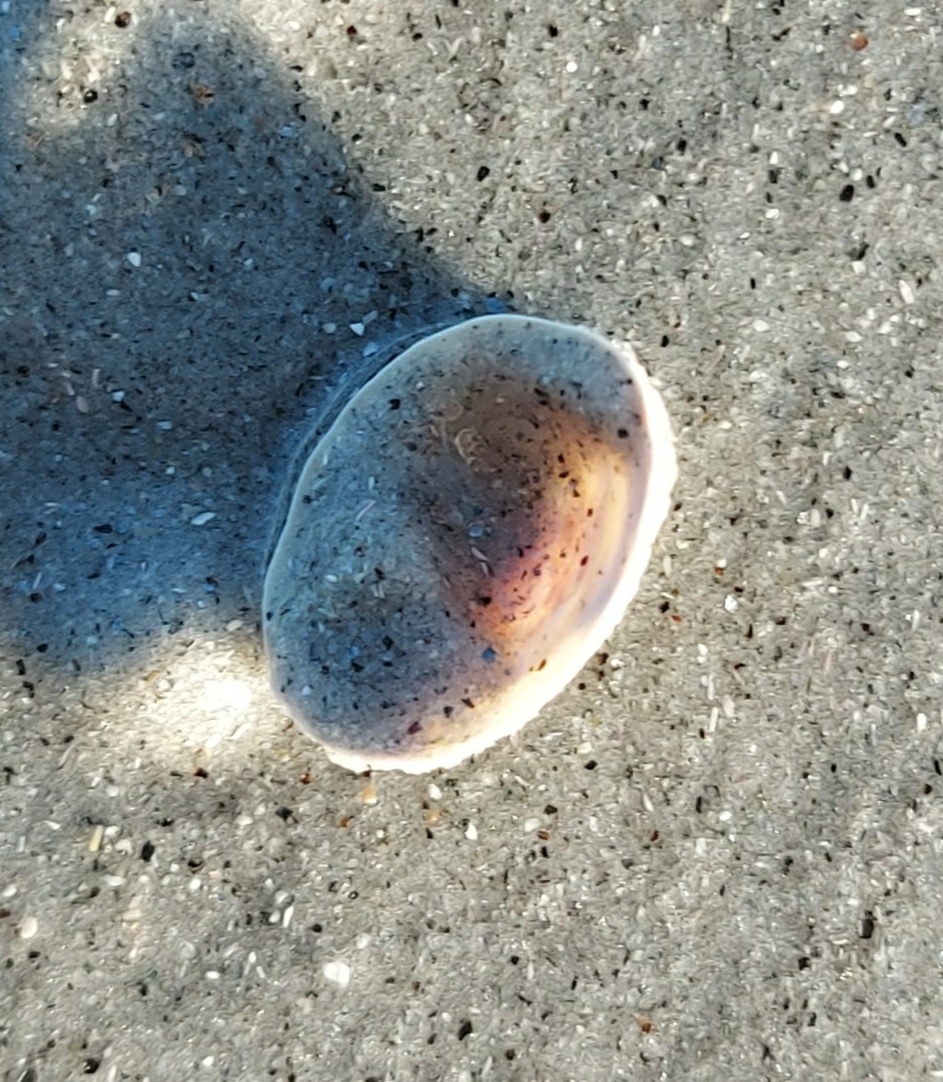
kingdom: Animalia
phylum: Mollusca
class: Gastropoda
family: Lottiidae
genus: Testudinalia
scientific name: Testudinalia testudinalis
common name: Common tortoiseshell limpet
